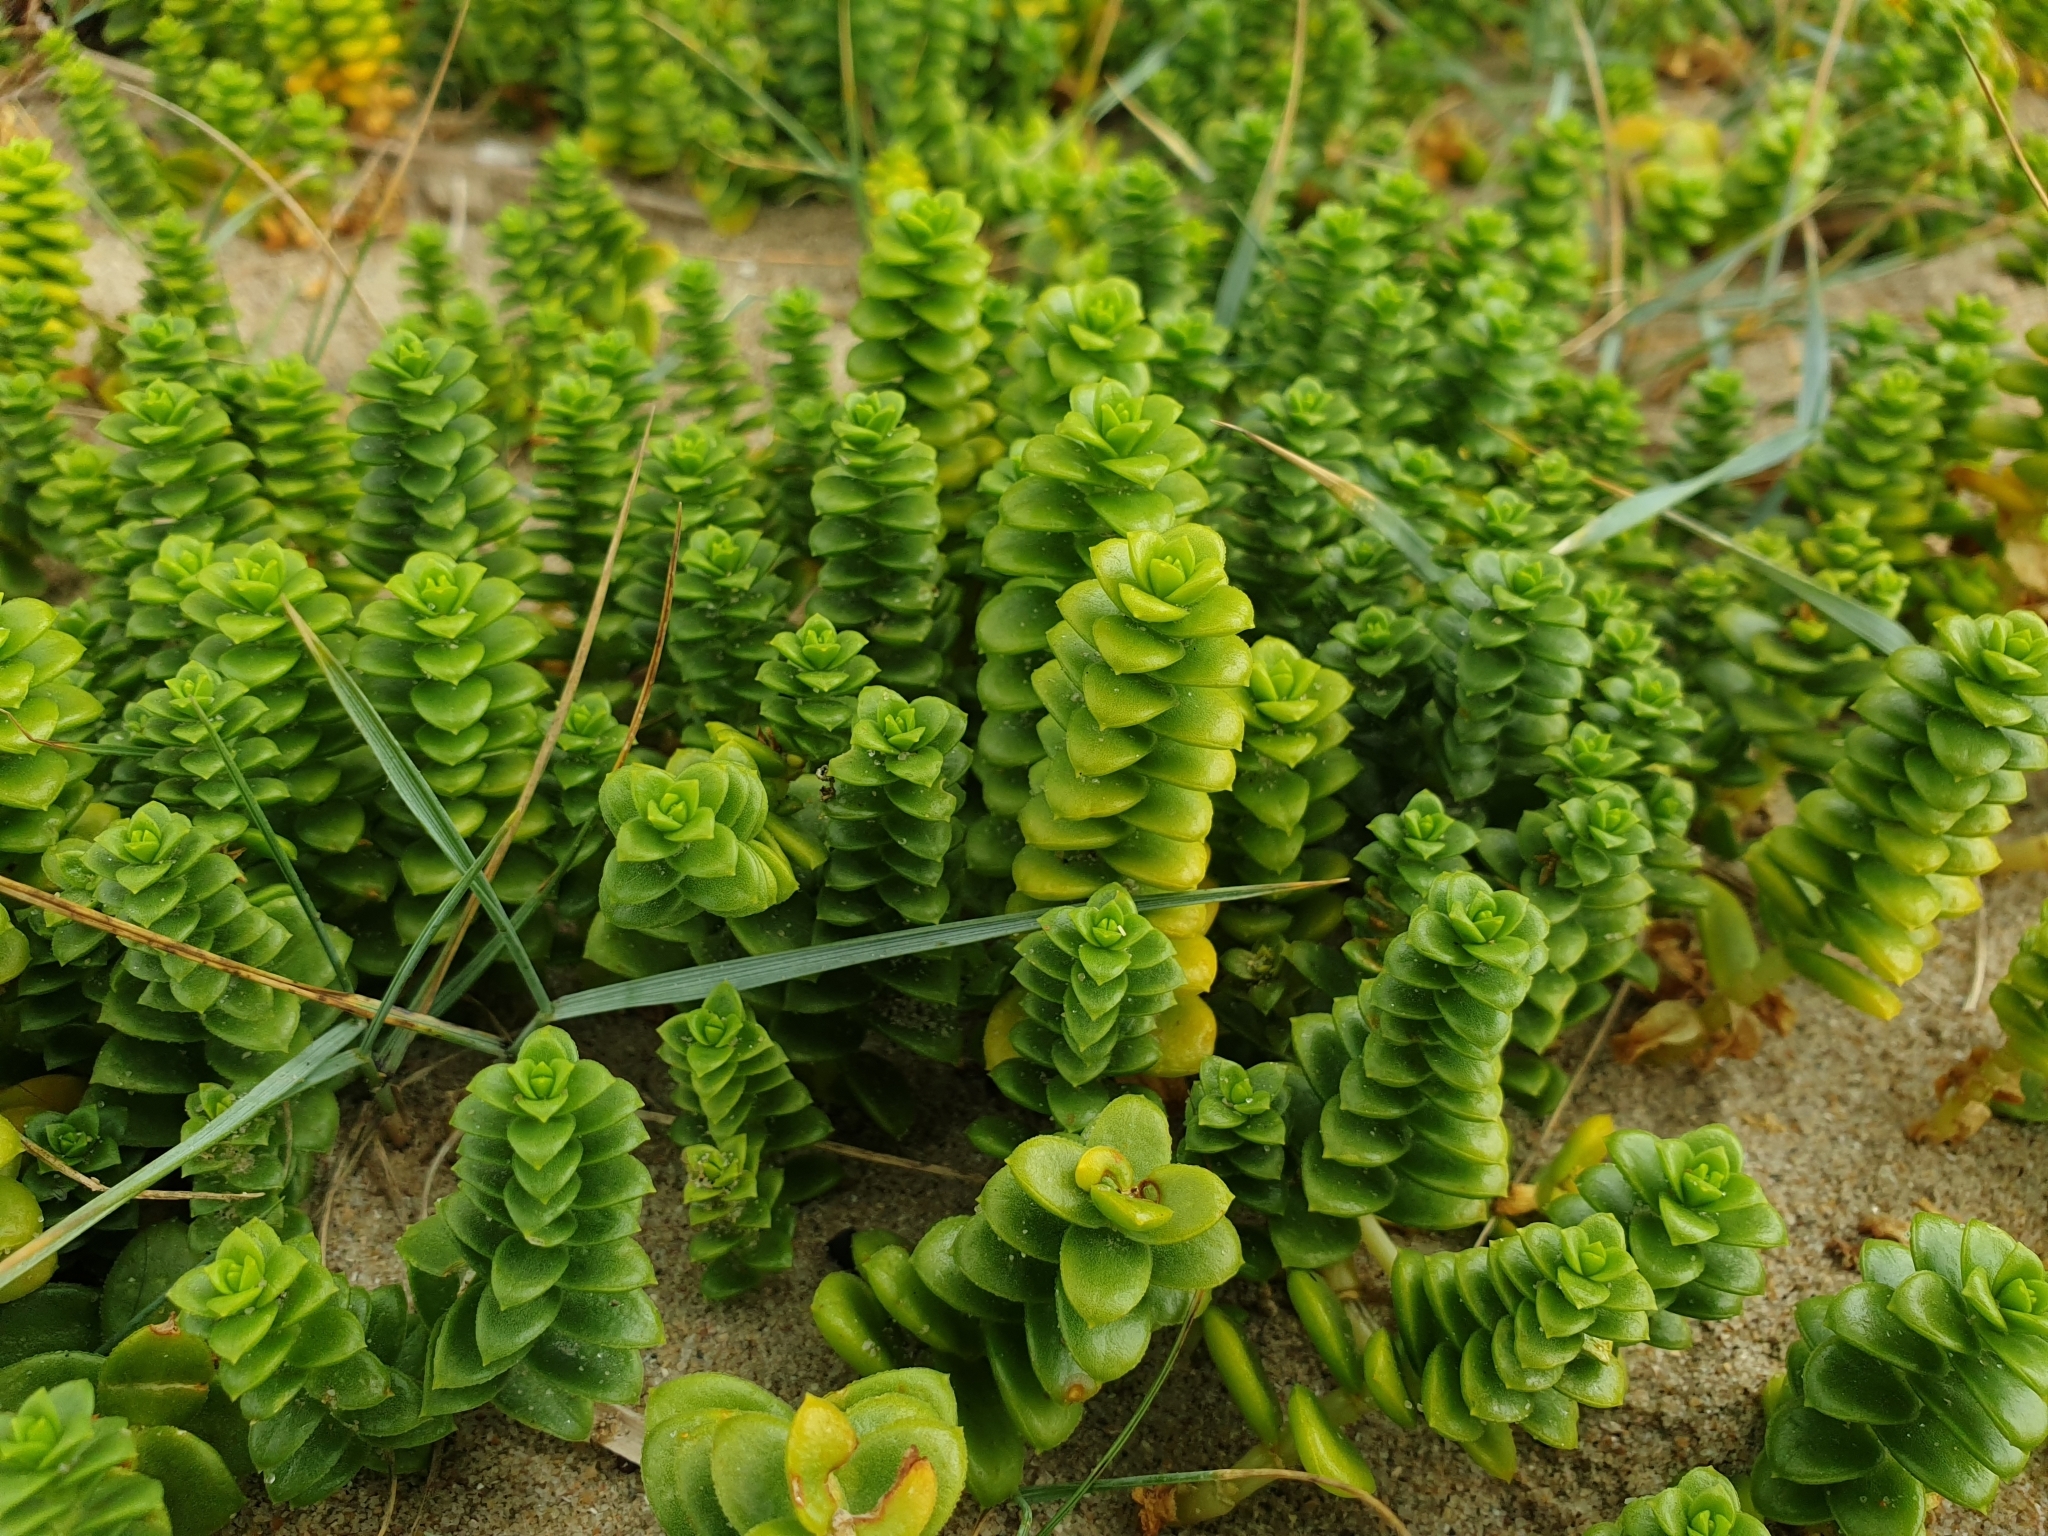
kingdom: Plantae
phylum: Tracheophyta
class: Magnoliopsida
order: Caryophyllales
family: Caryophyllaceae
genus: Honckenya
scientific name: Honckenya peploides
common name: Sea sandwort
